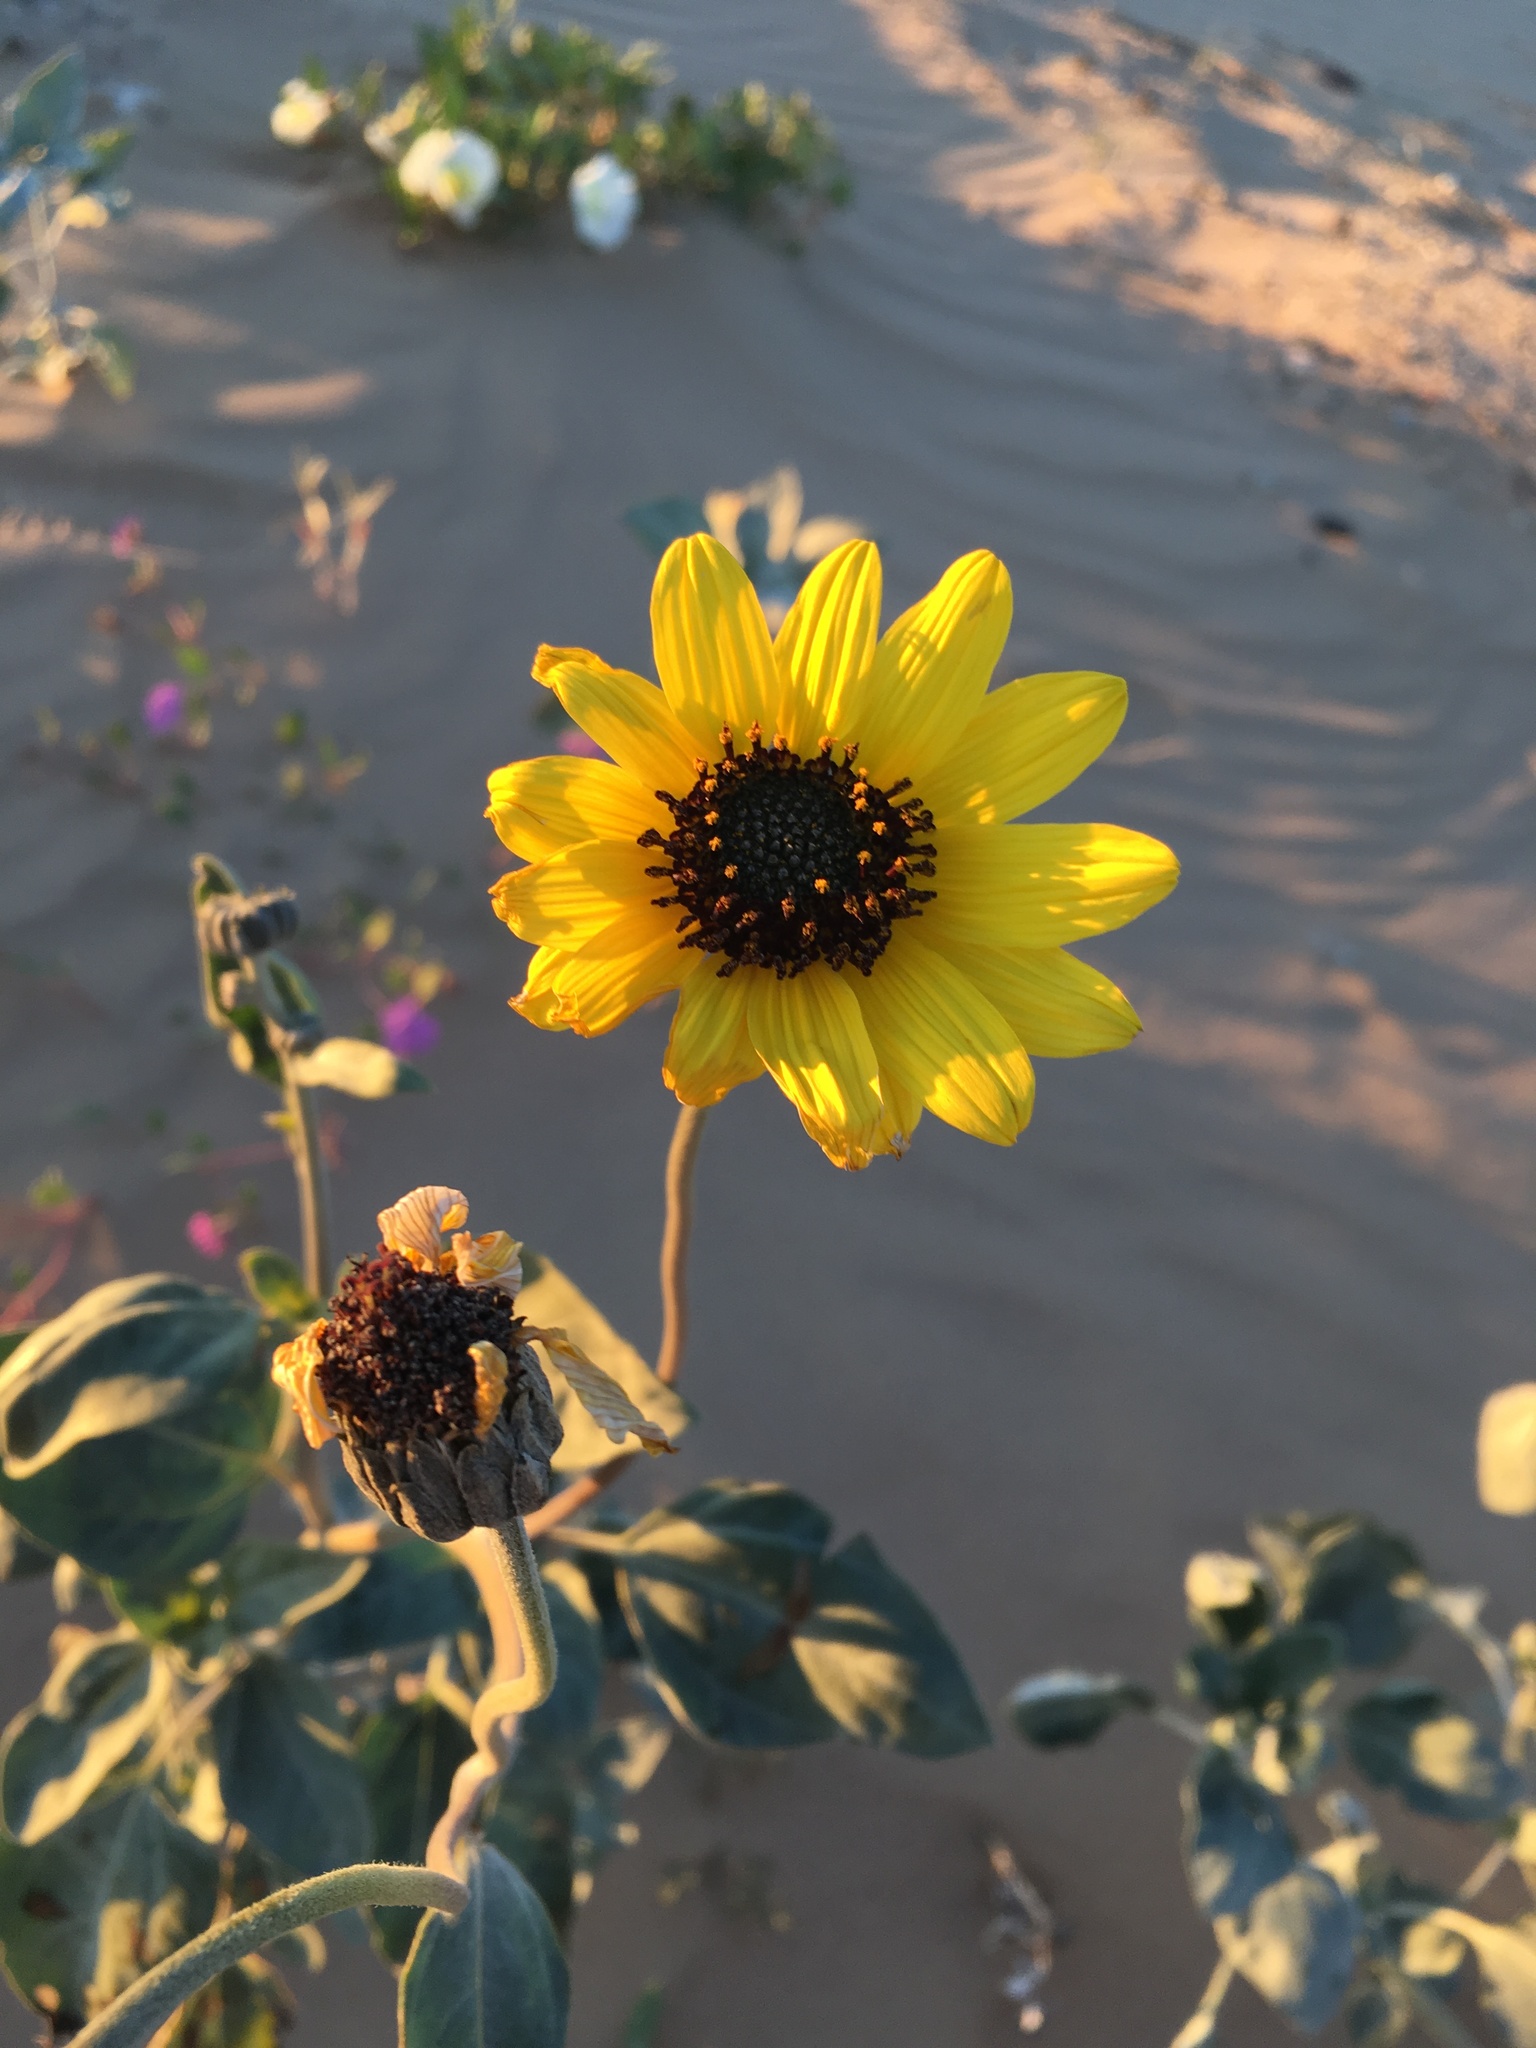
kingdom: Plantae
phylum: Tracheophyta
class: Magnoliopsida
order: Asterales
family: Asteraceae
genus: Helianthus
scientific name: Helianthus niveus
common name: Snowy sunflower
